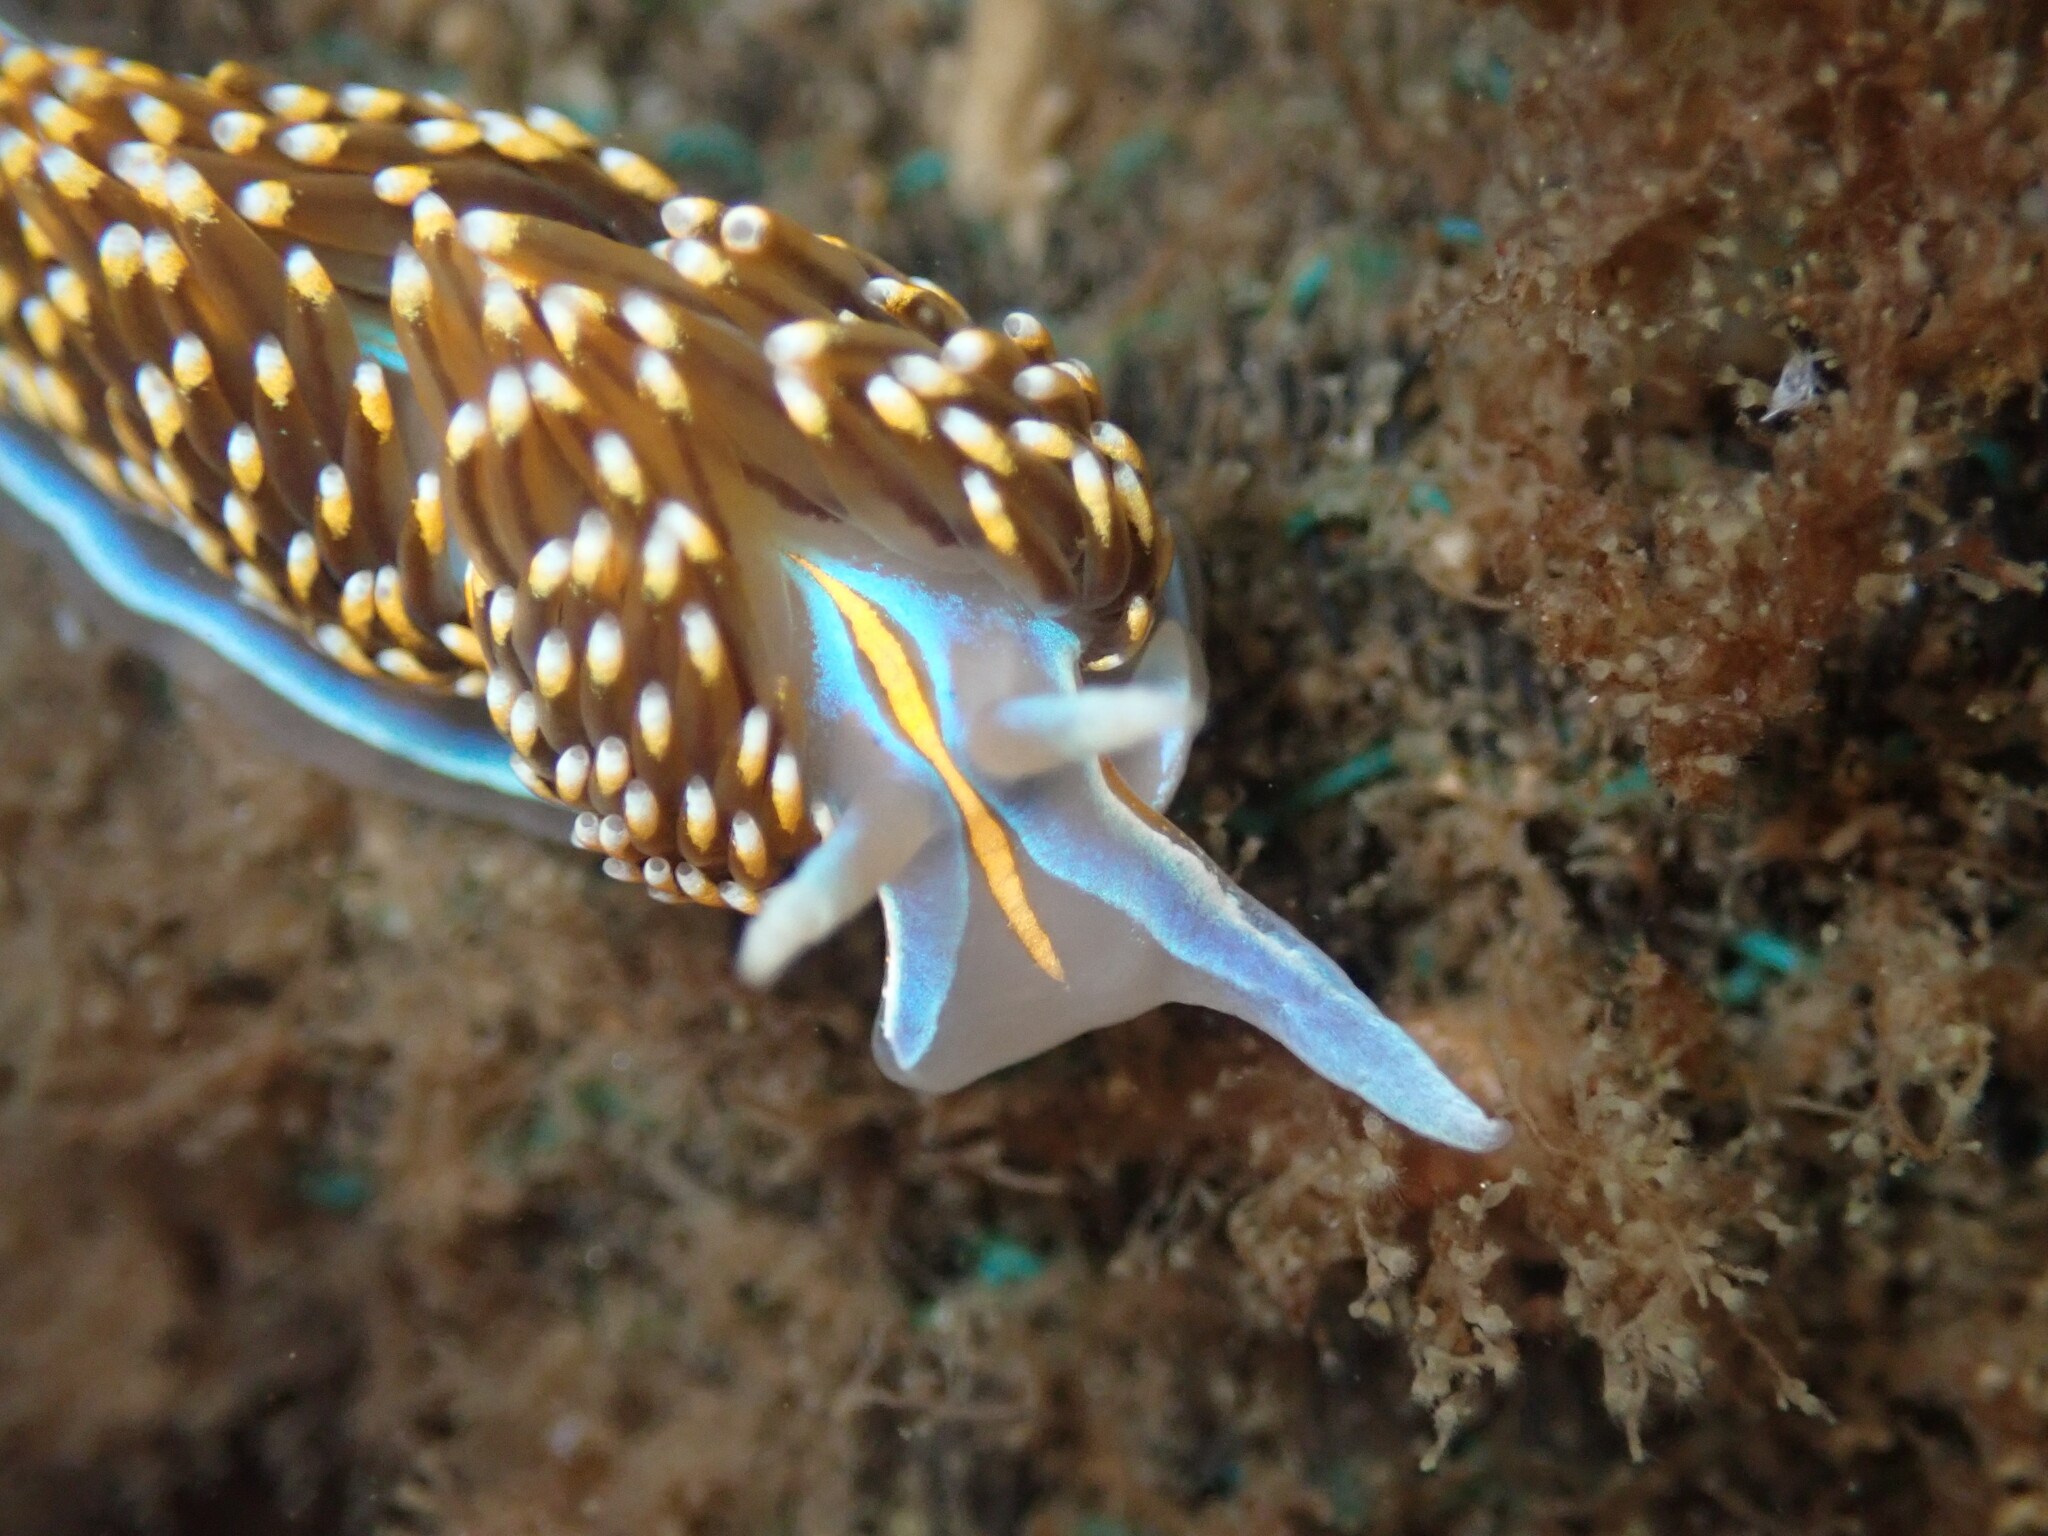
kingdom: Animalia
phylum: Mollusca
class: Gastropoda
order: Nudibranchia
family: Myrrhinidae
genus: Hermissenda
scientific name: Hermissenda opalescens
